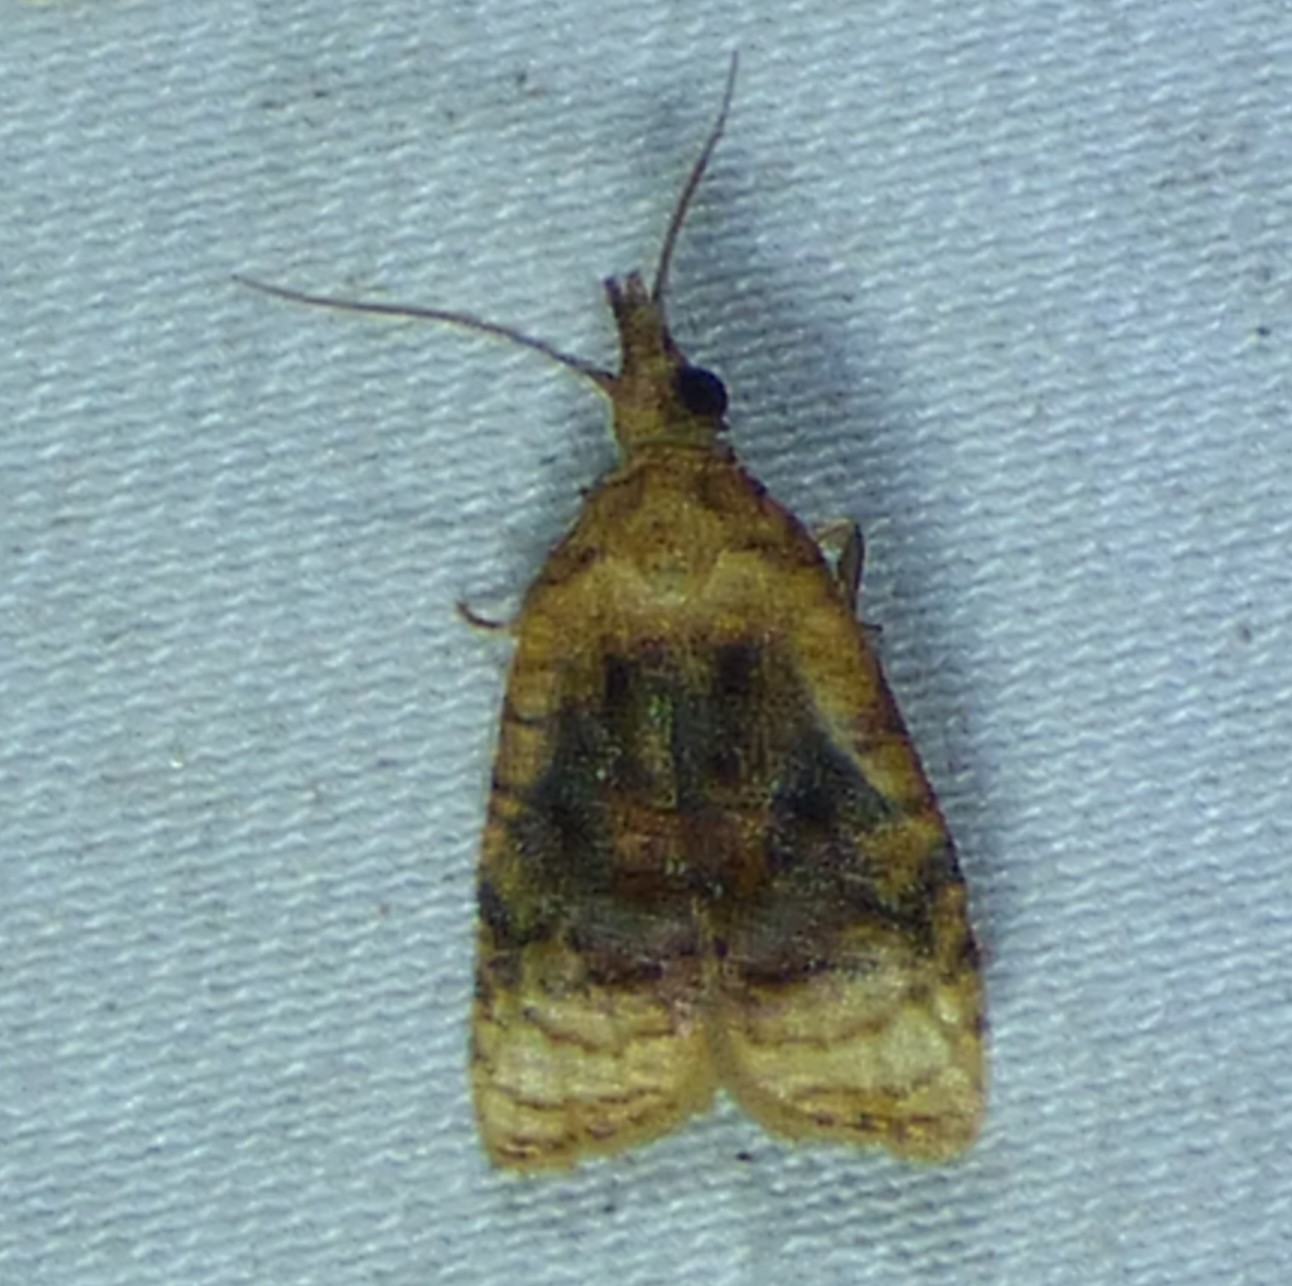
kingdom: Animalia
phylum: Arthropoda
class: Insecta
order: Lepidoptera
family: Tortricidae
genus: Platynota
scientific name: Platynota flavedana
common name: Black-shaded platynota moth
